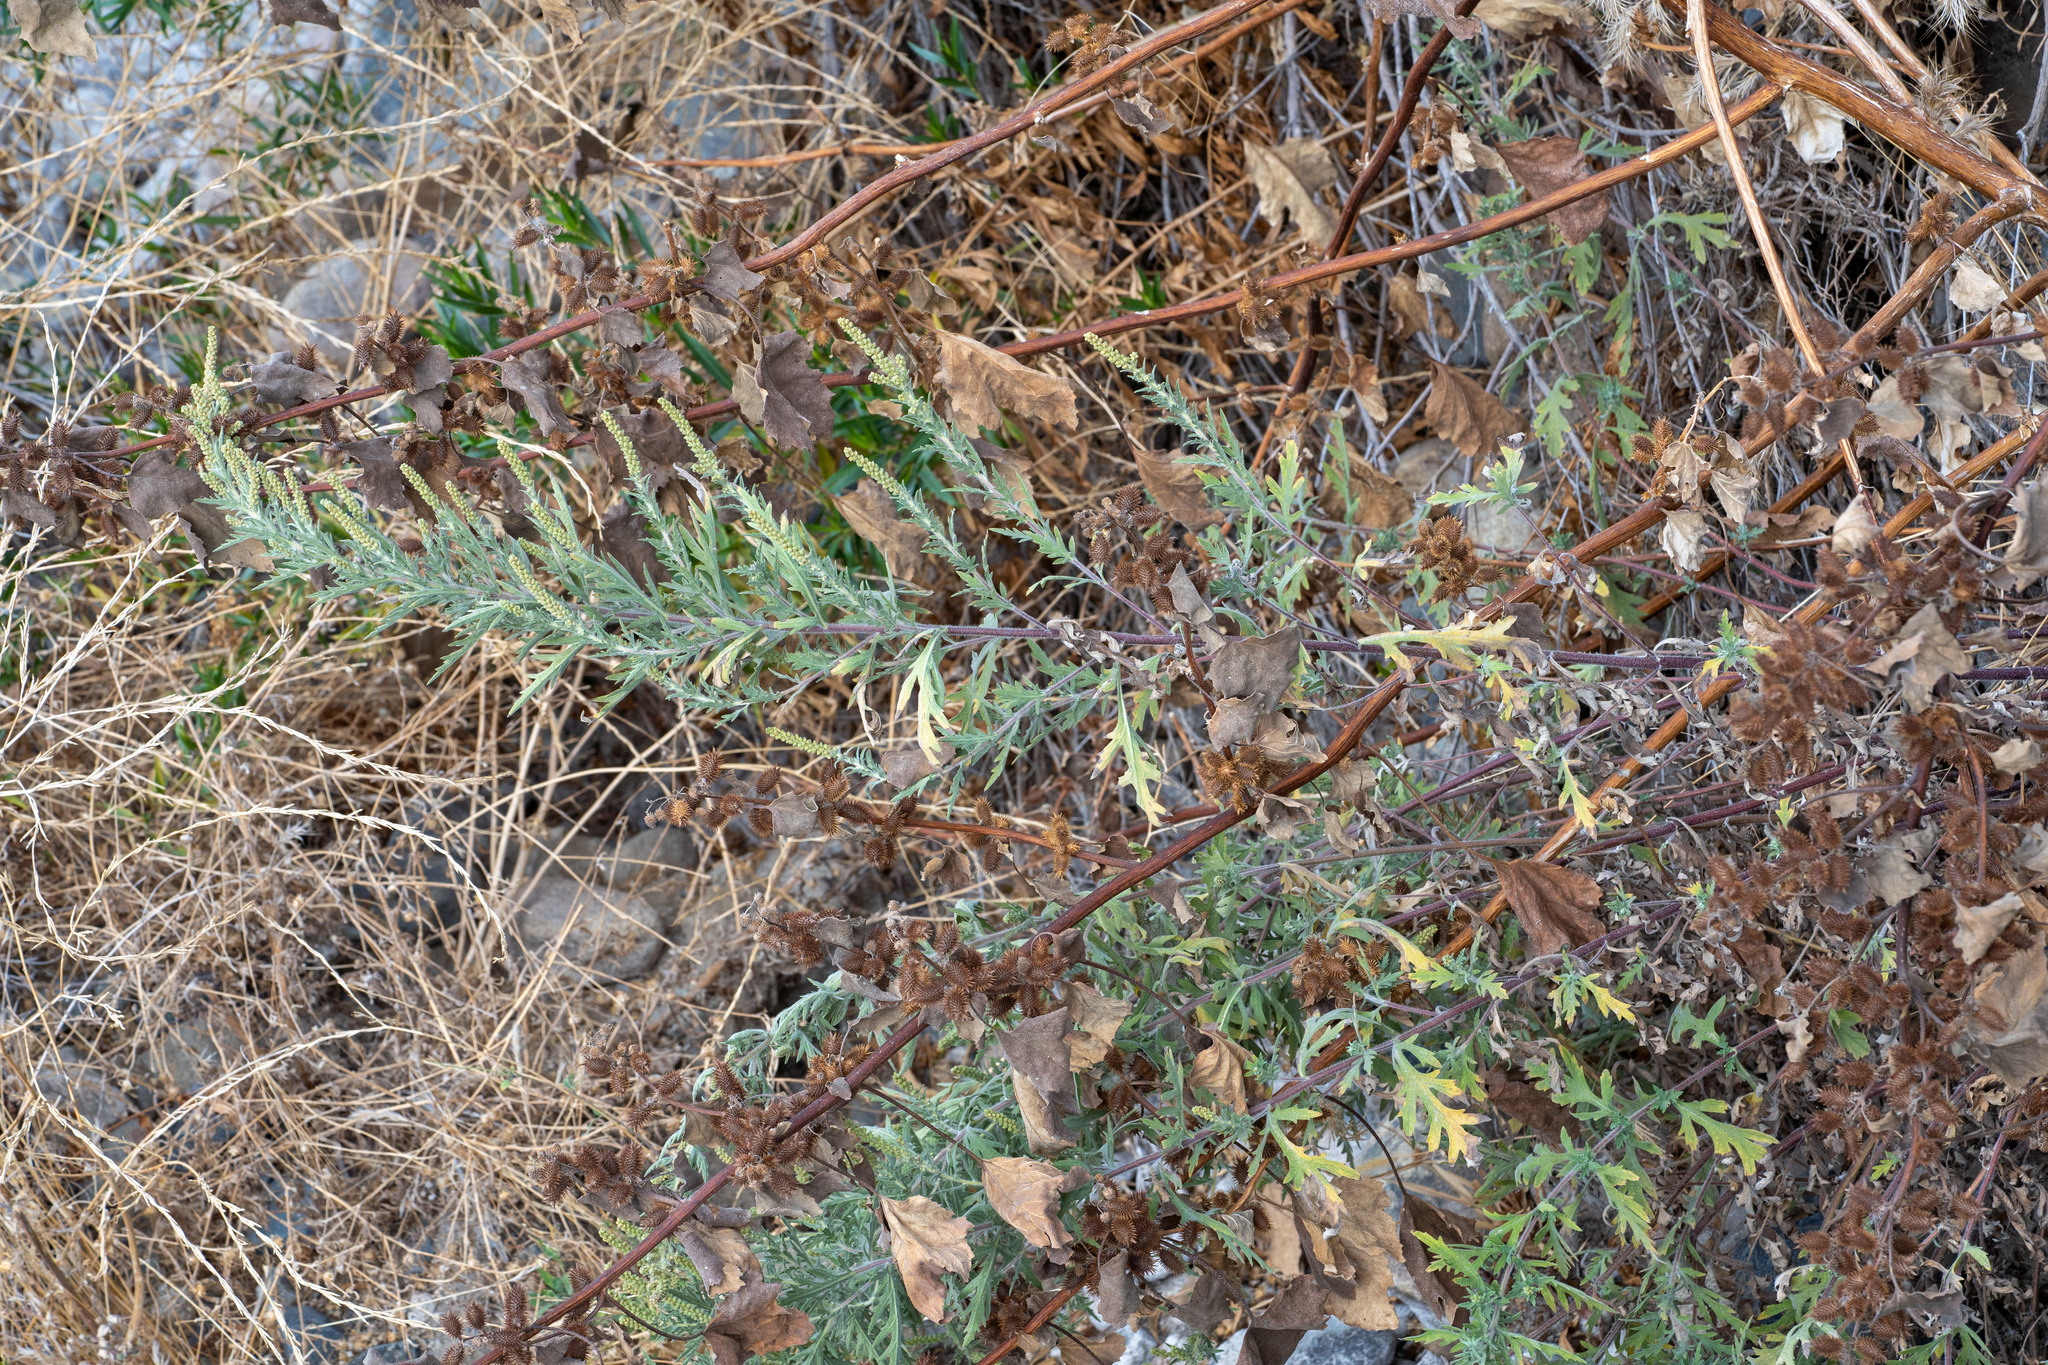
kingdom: Plantae
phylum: Tracheophyta
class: Magnoliopsida
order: Asterales
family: Asteraceae
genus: Ambrosia
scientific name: Ambrosia psilostachya
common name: Perennial ragweed
